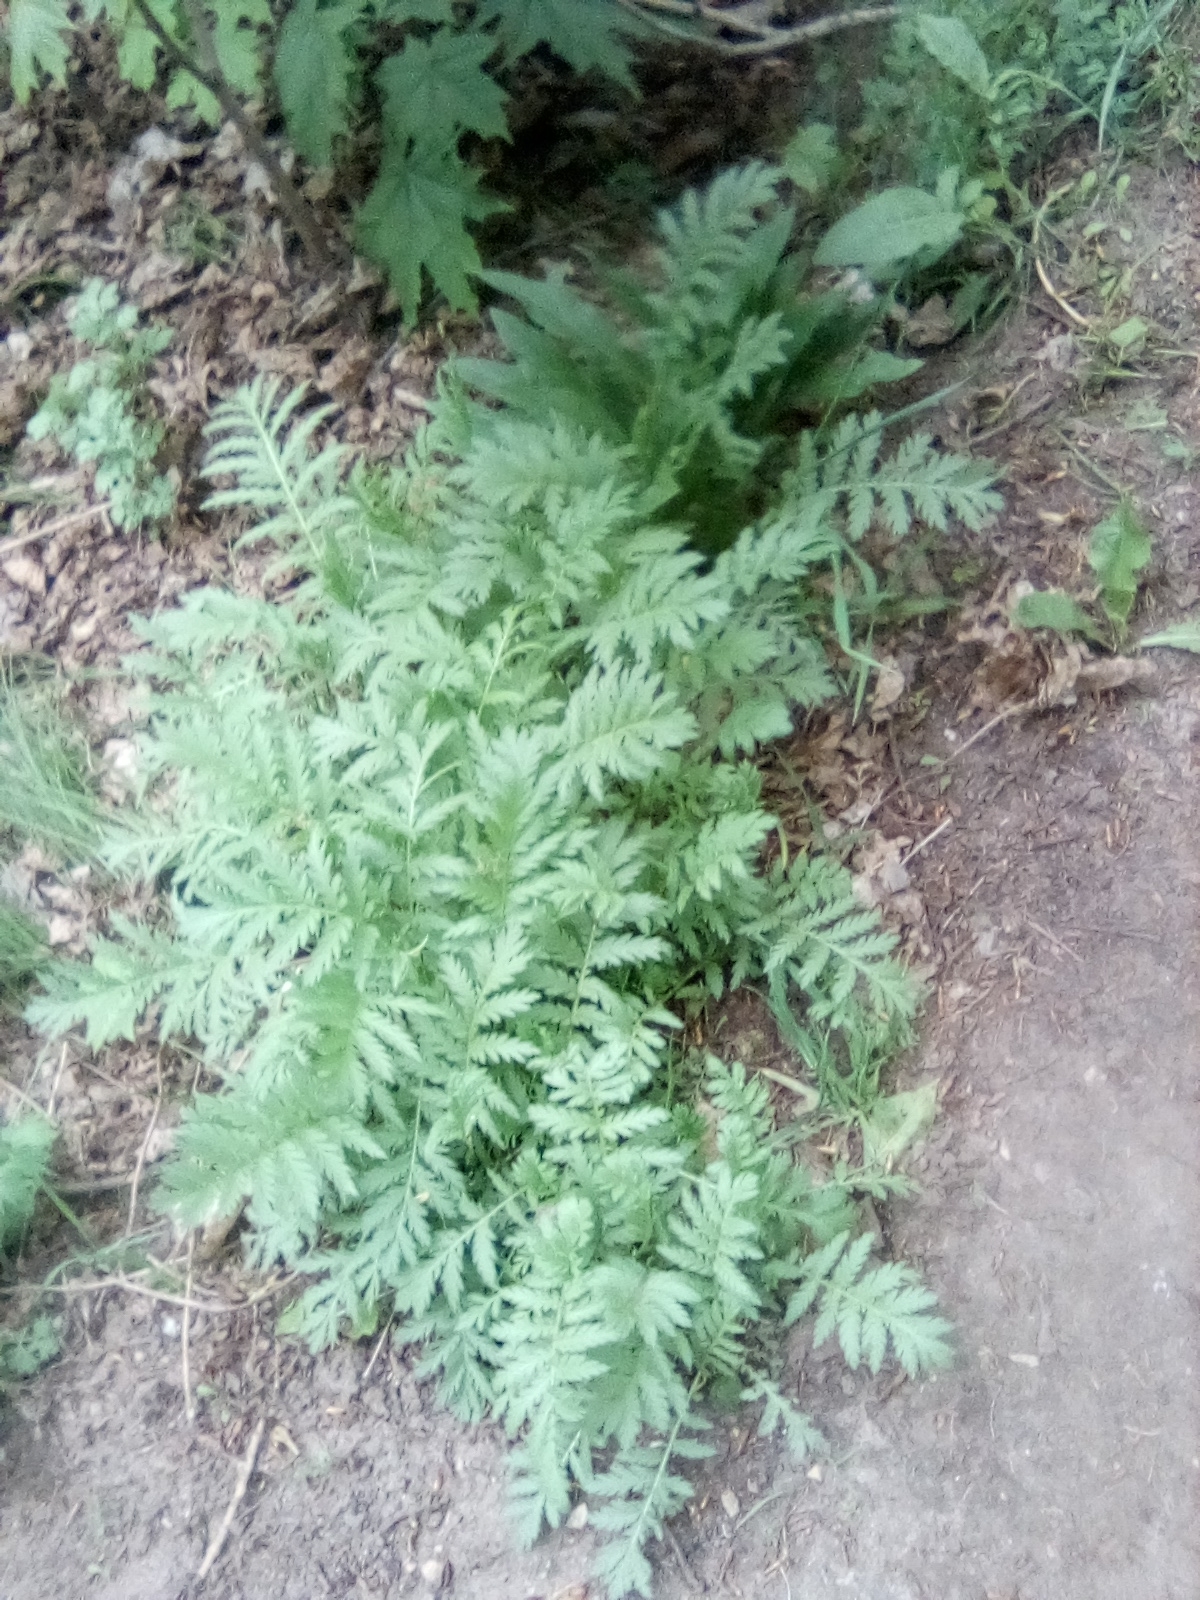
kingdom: Plantae
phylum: Tracheophyta
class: Magnoliopsida
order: Asterales
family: Asteraceae
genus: Tanacetum
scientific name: Tanacetum vulgare
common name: Common tansy
